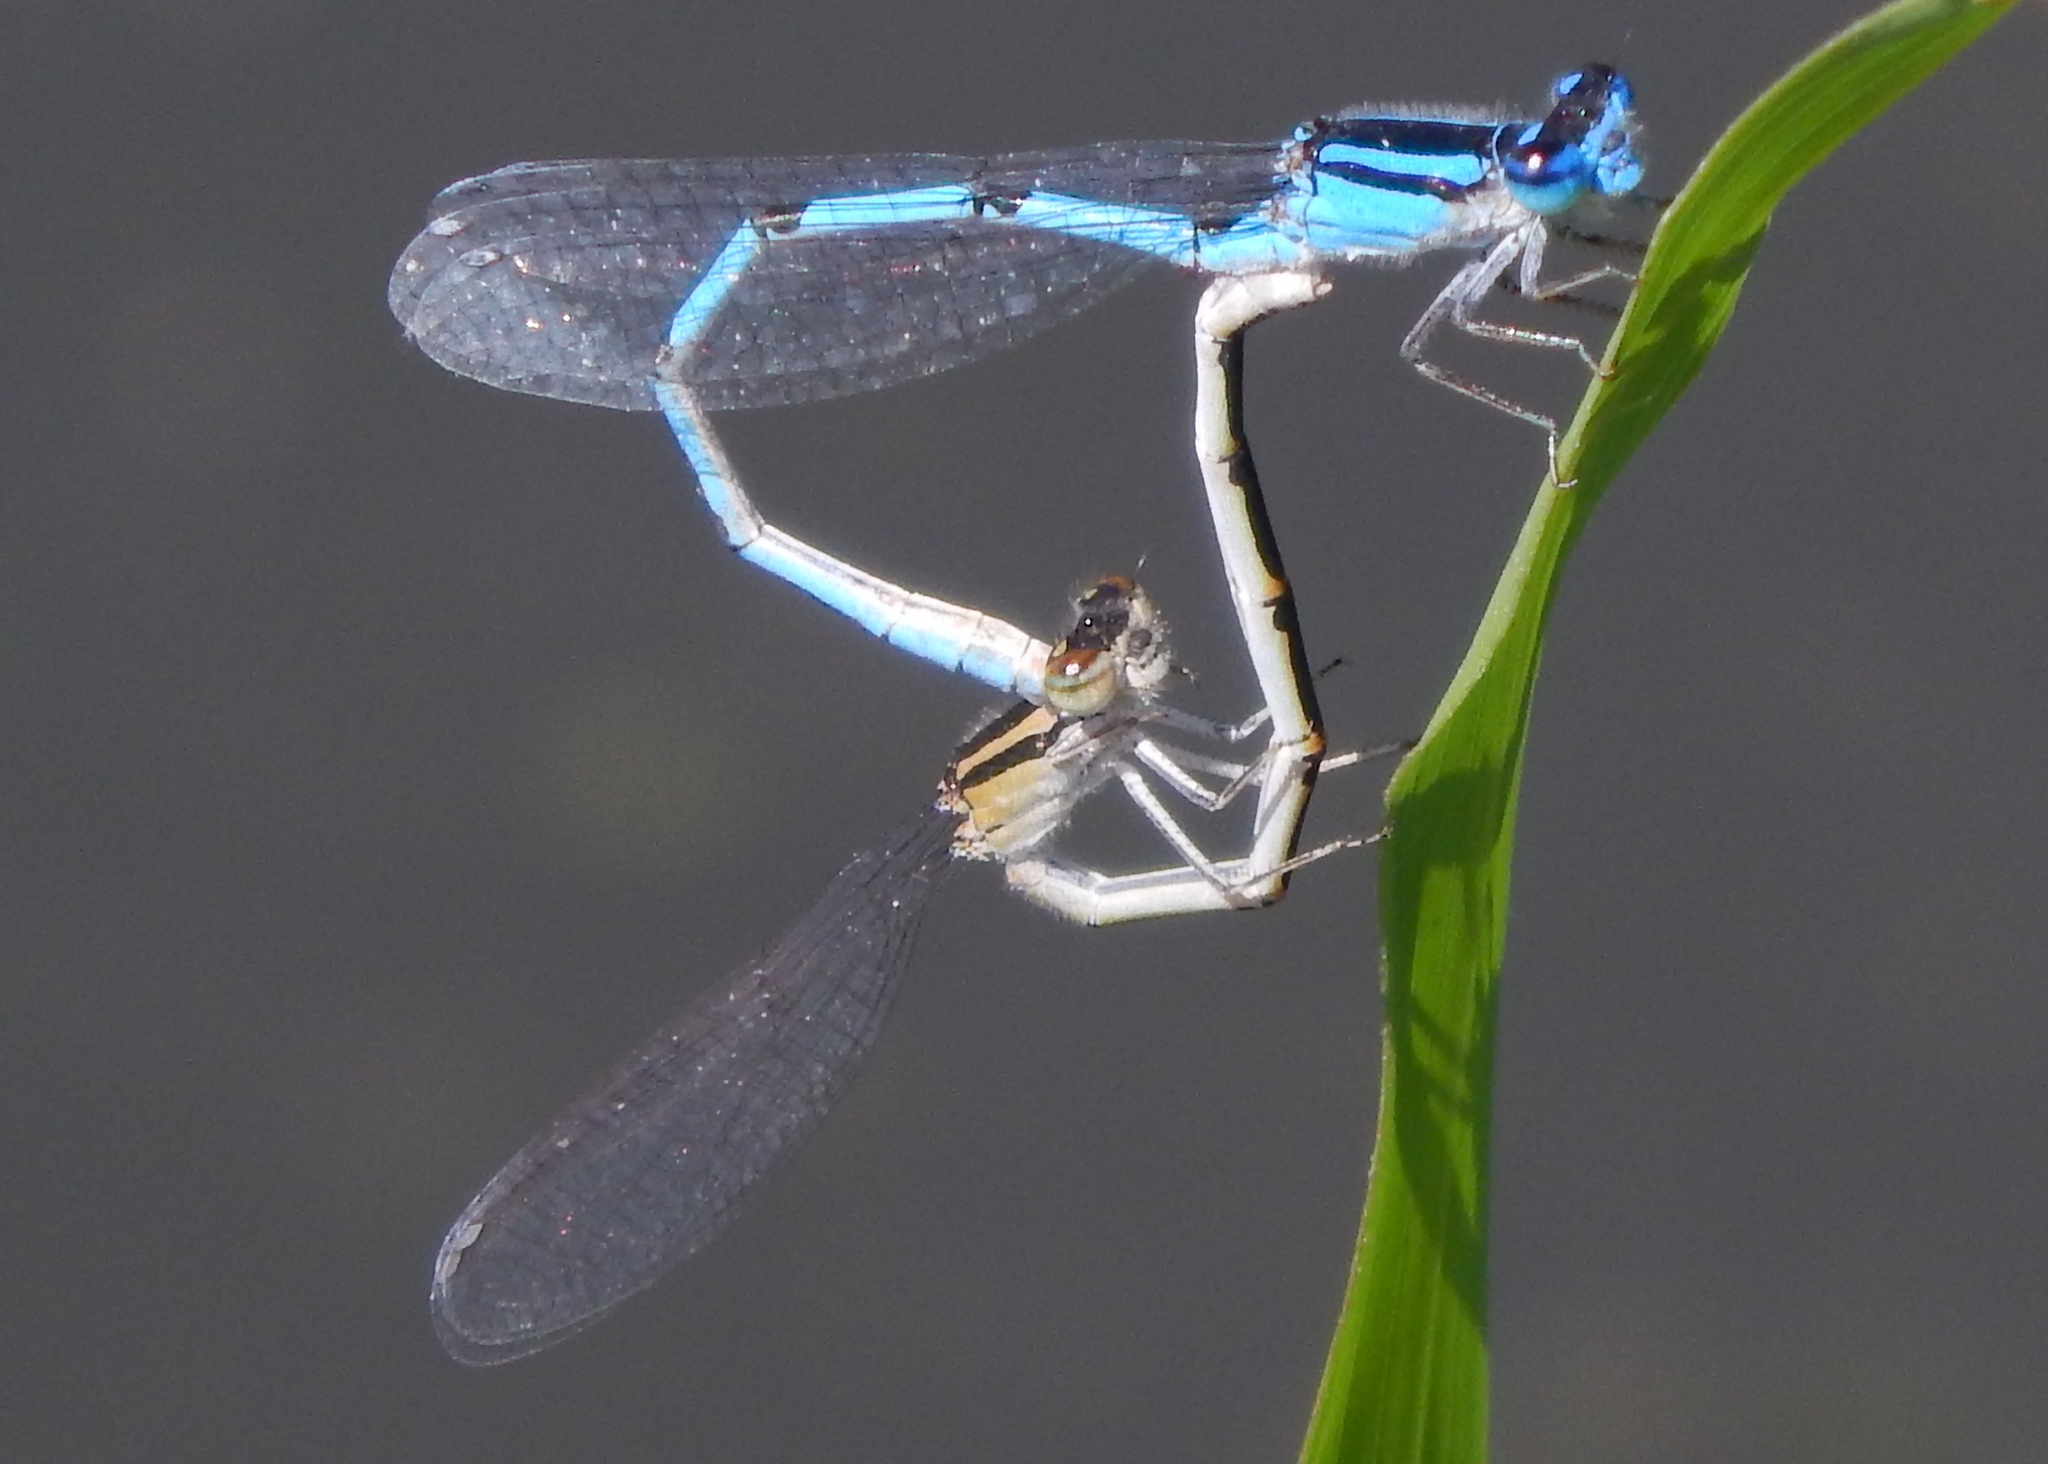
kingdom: Animalia
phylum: Arthropoda
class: Insecta
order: Odonata
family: Coenagrionidae
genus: Enallagma
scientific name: Enallagma civile
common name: Damselfly
